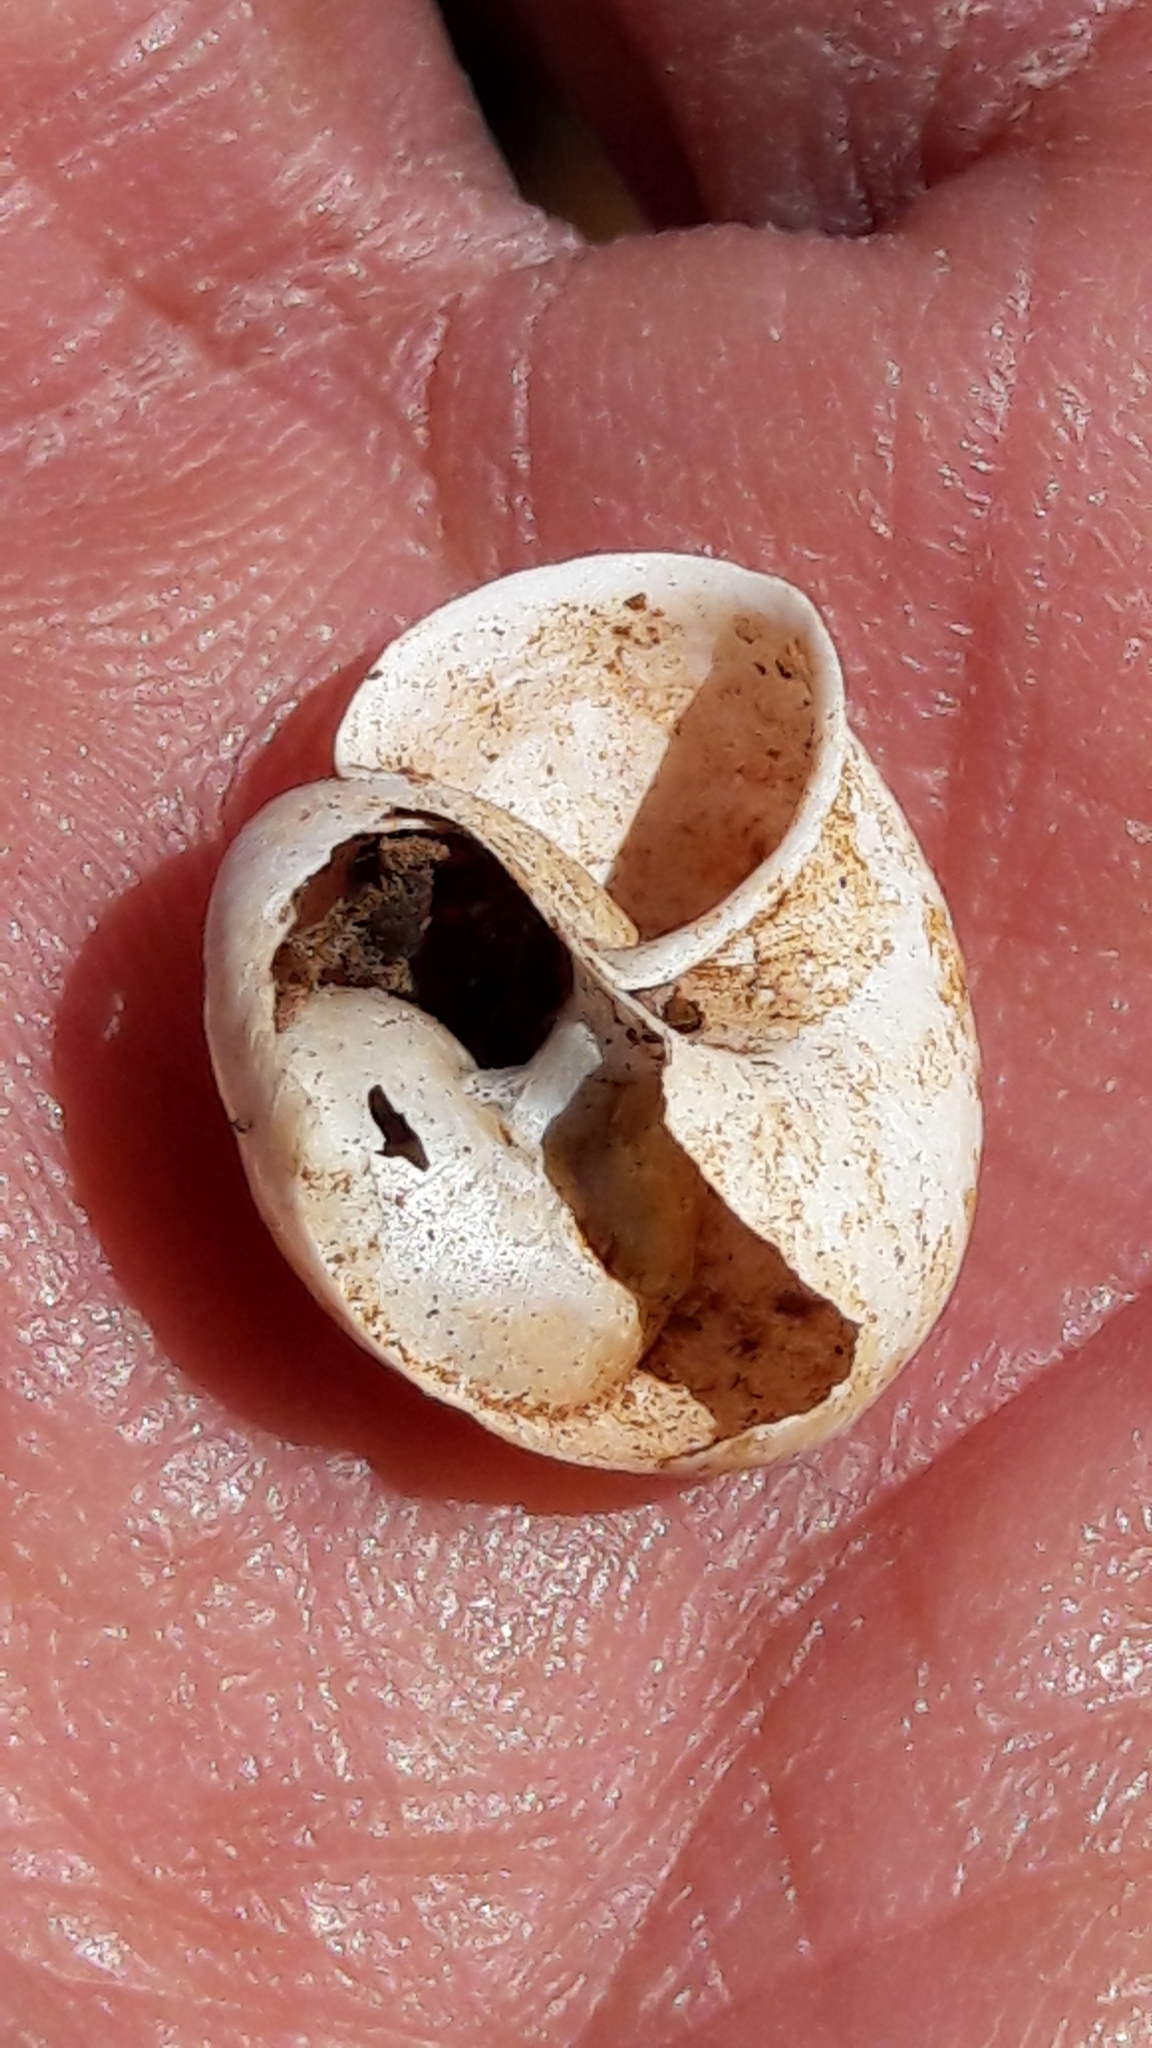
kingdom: Animalia
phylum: Mollusca
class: Gastropoda
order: Stylommatophora
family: Camaenidae
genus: Bradybaena
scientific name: Bradybaena similaris
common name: Asian trampsnail
